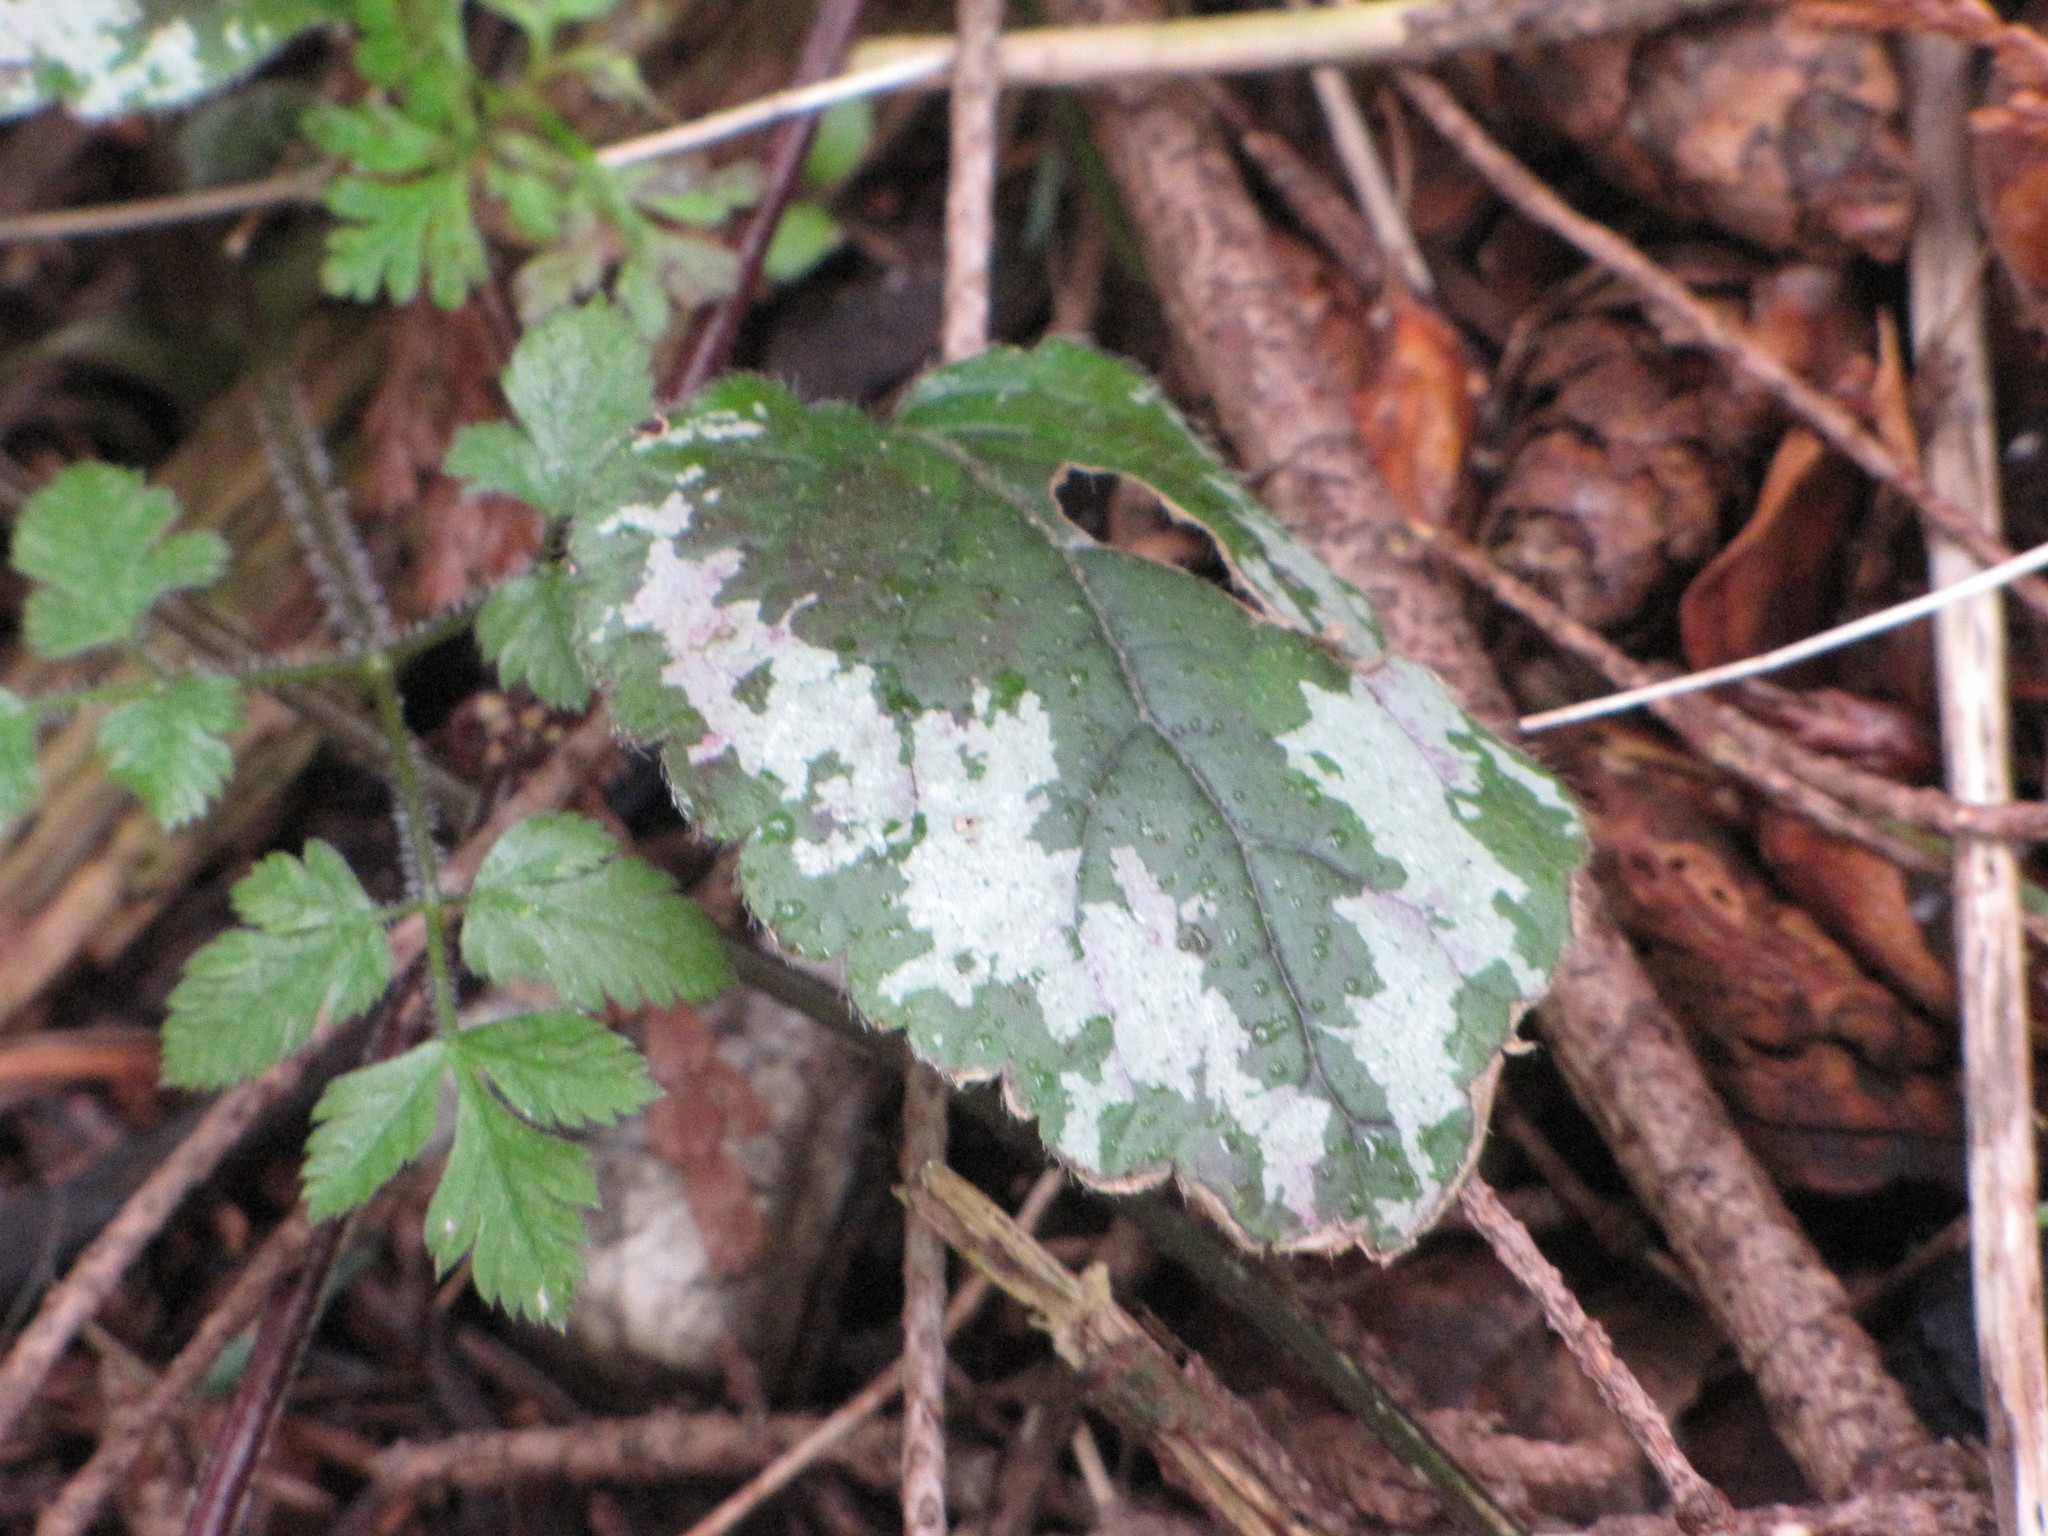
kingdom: Plantae
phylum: Tracheophyta
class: Magnoliopsida
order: Lamiales
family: Lamiaceae
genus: Lamium
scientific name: Lamium galeobdolon
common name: Yellow archangel
